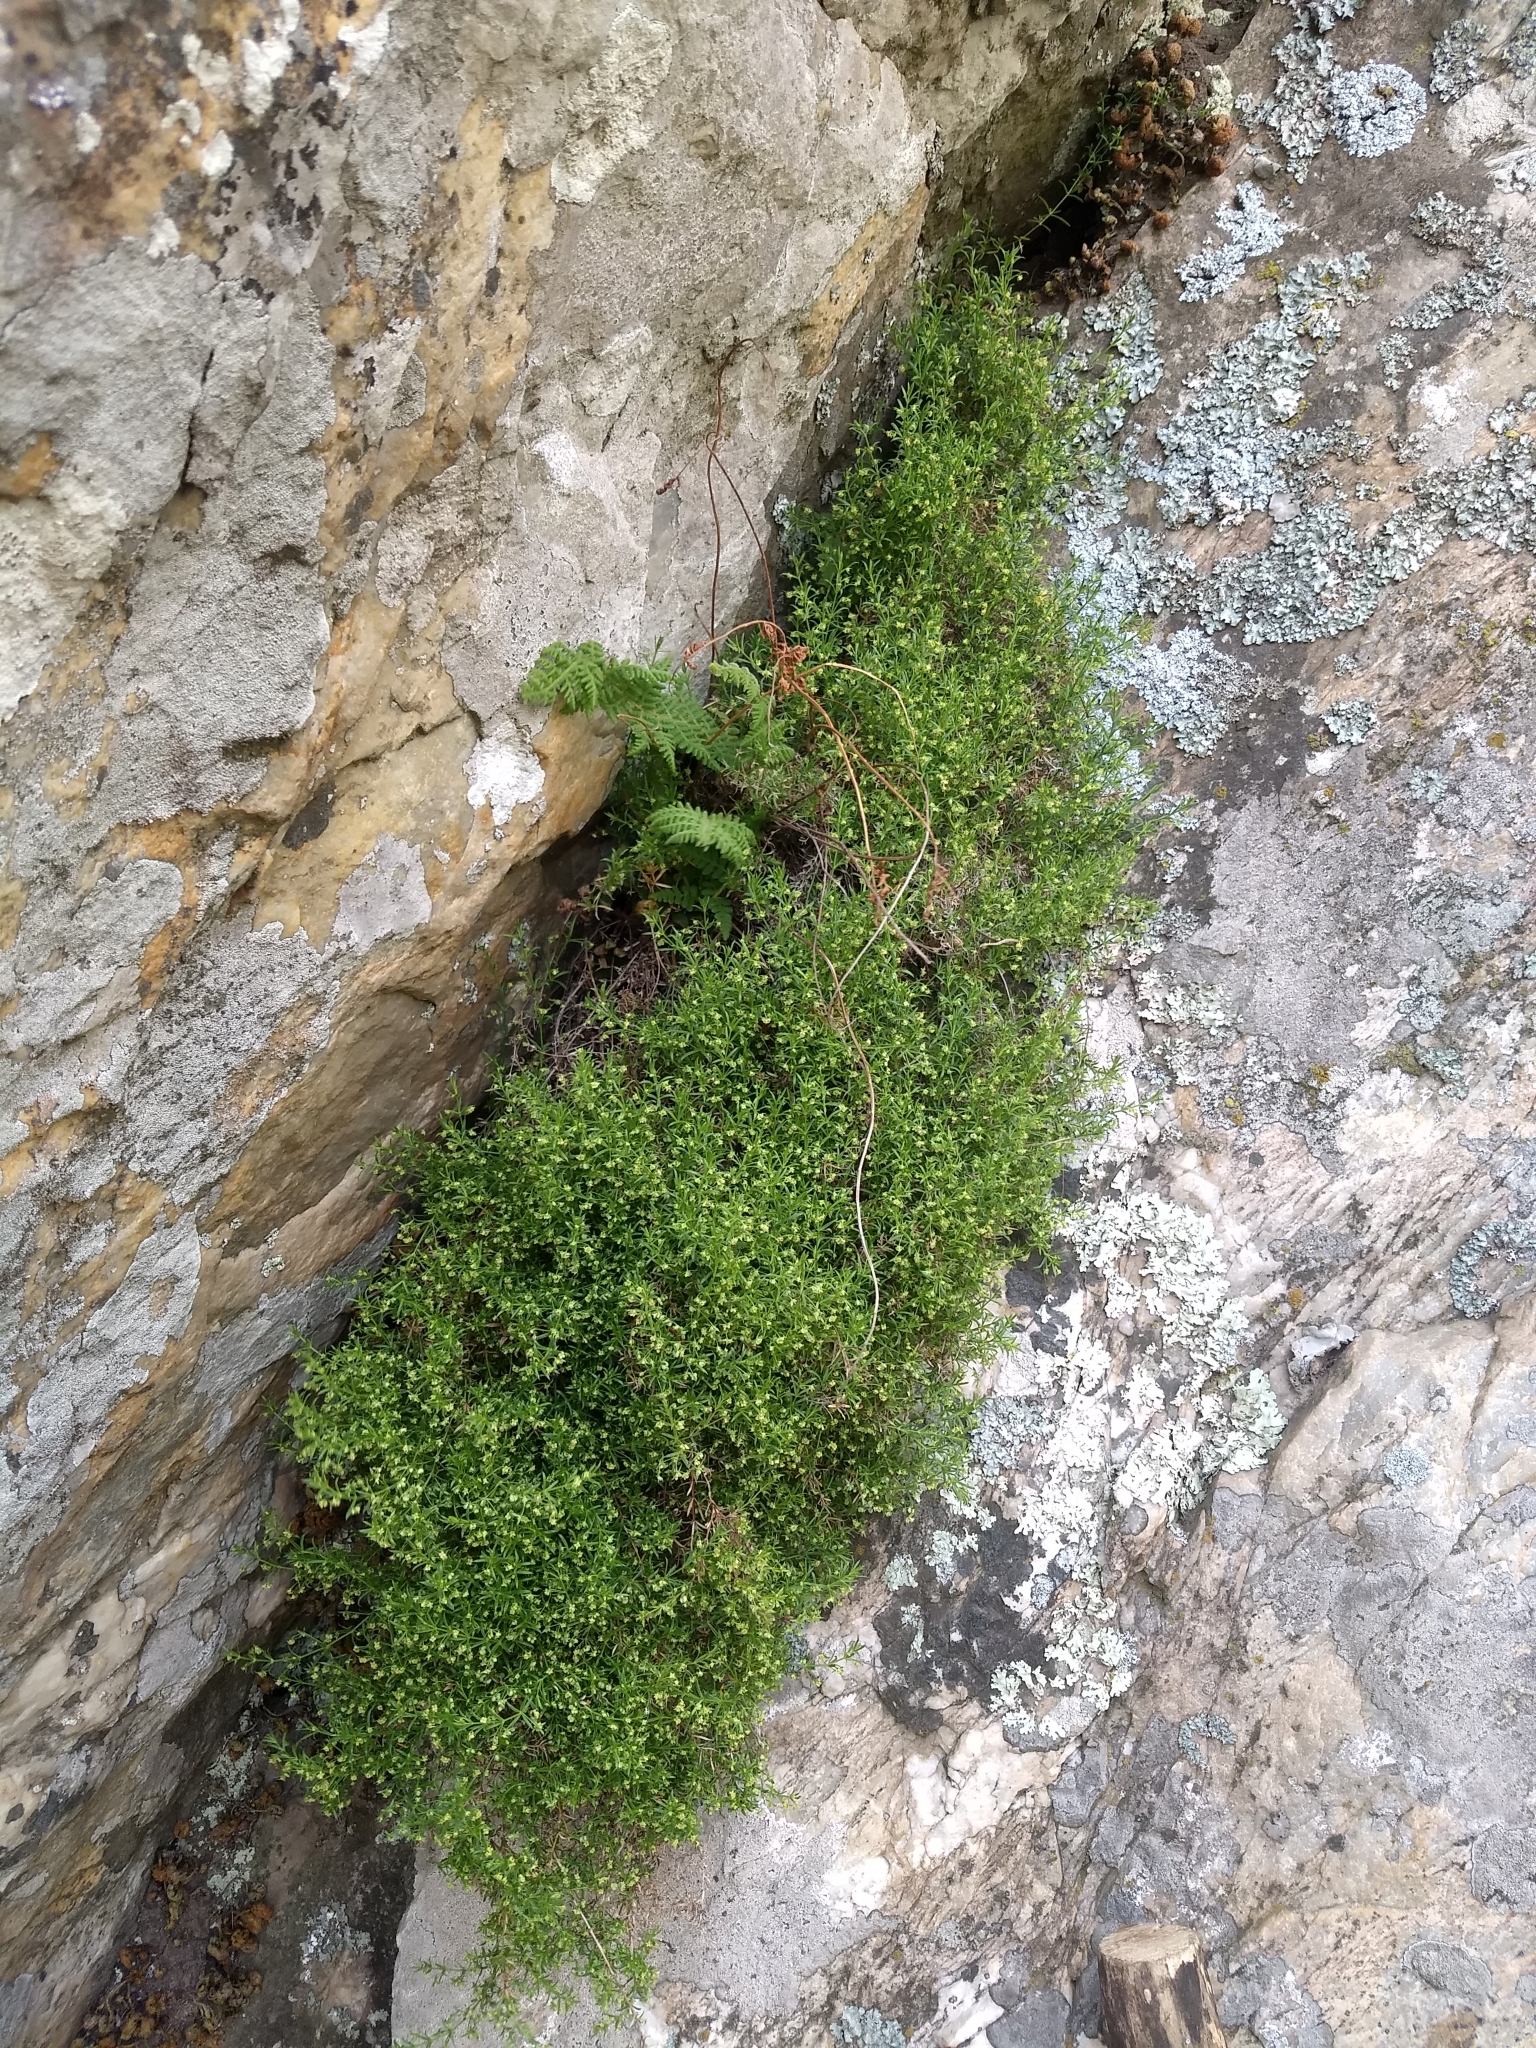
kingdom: Plantae
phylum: Tracheophyta
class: Magnoliopsida
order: Gentianales
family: Rubiaceae
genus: Galium
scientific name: Galium bigeminum
